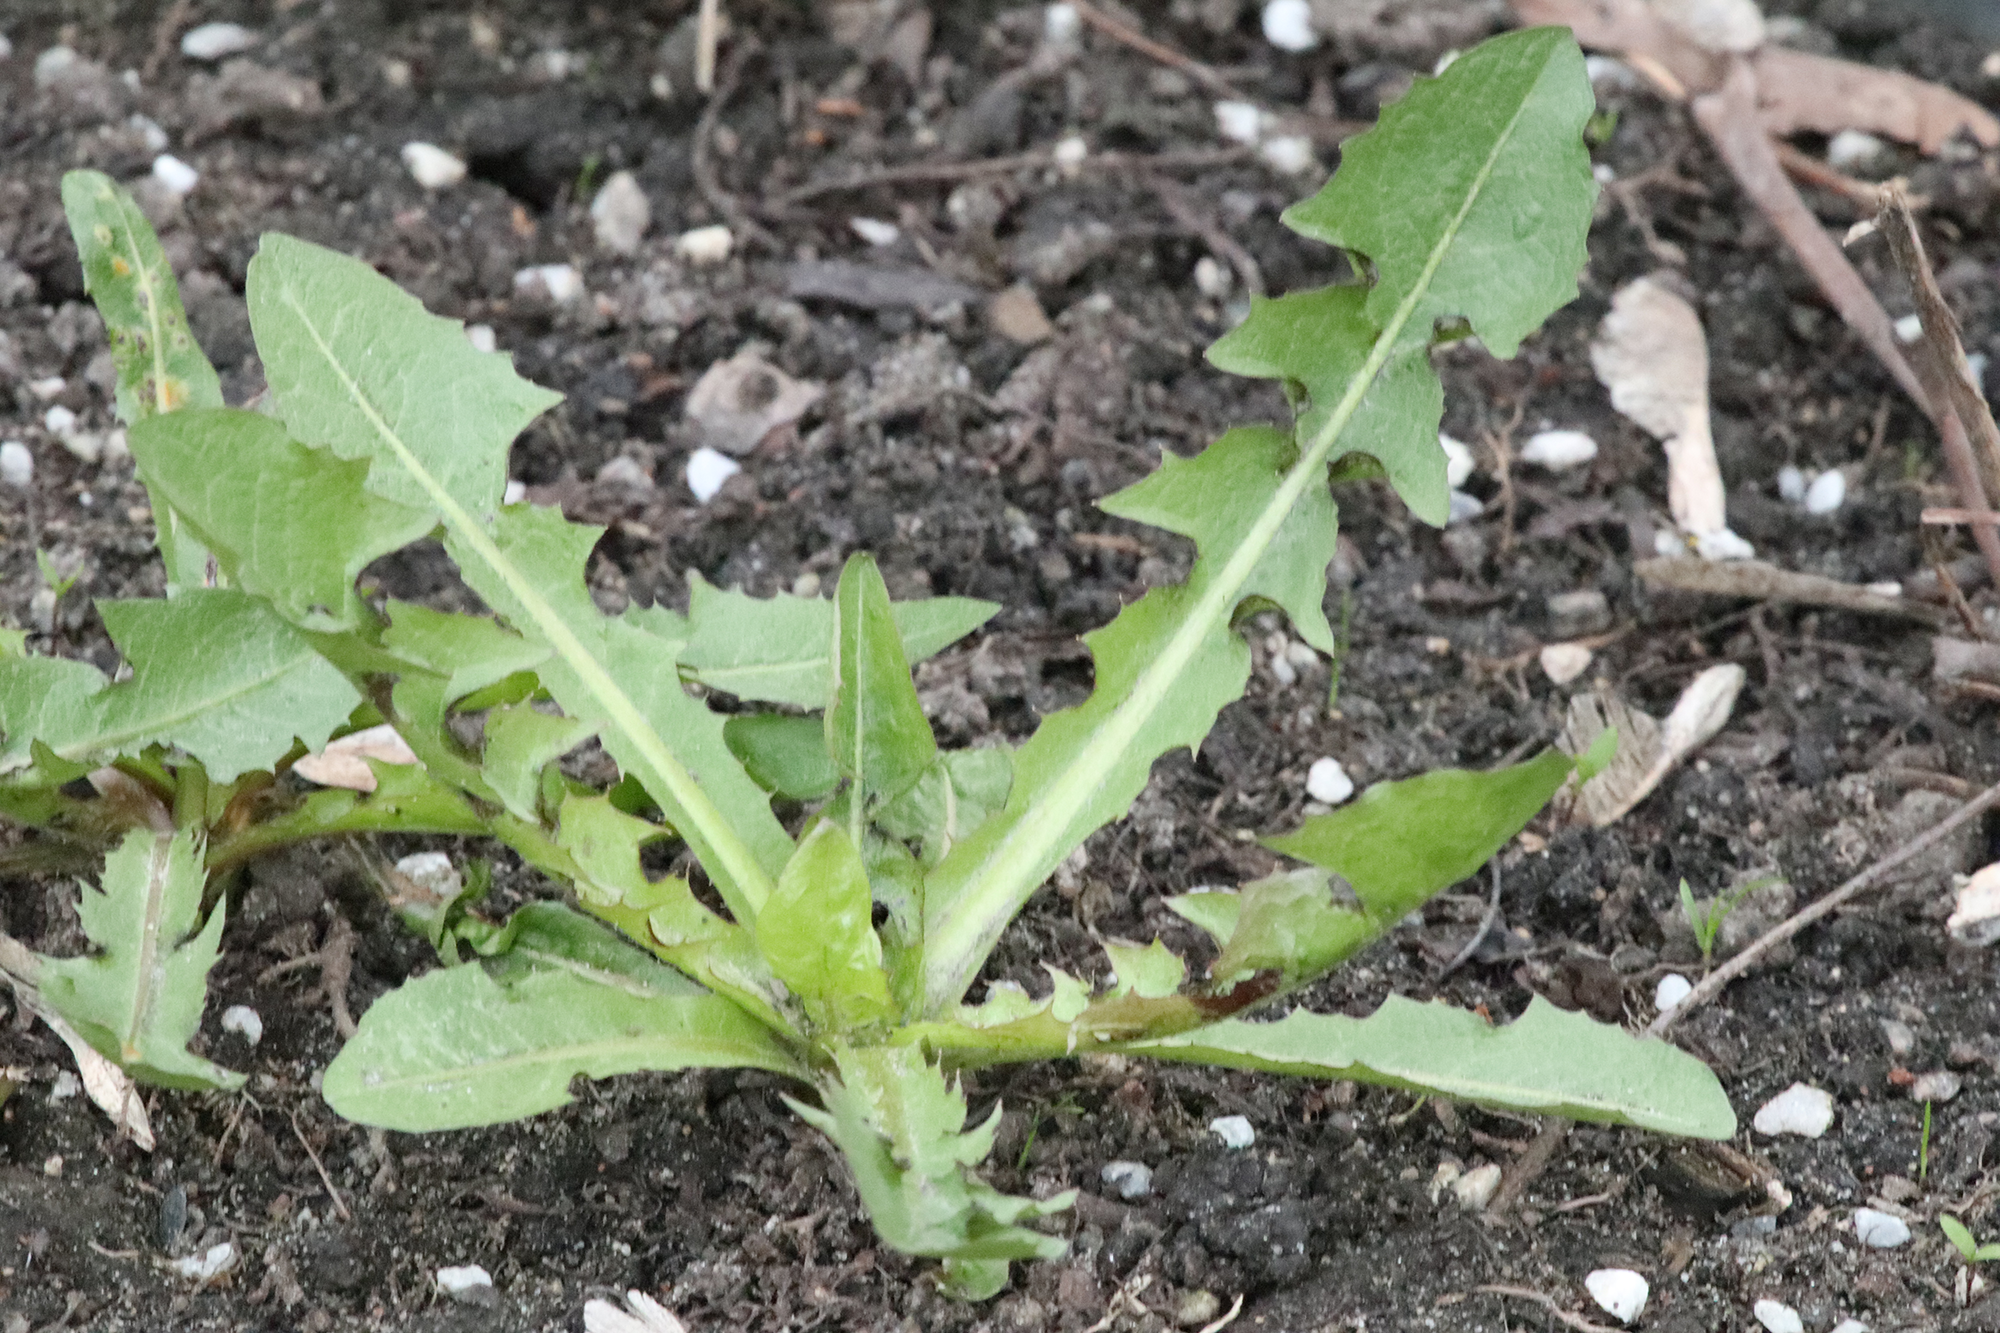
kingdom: Plantae
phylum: Tracheophyta
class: Magnoliopsida
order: Asterales
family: Asteraceae
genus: Taraxacum
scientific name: Taraxacum officinale
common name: Common dandelion
